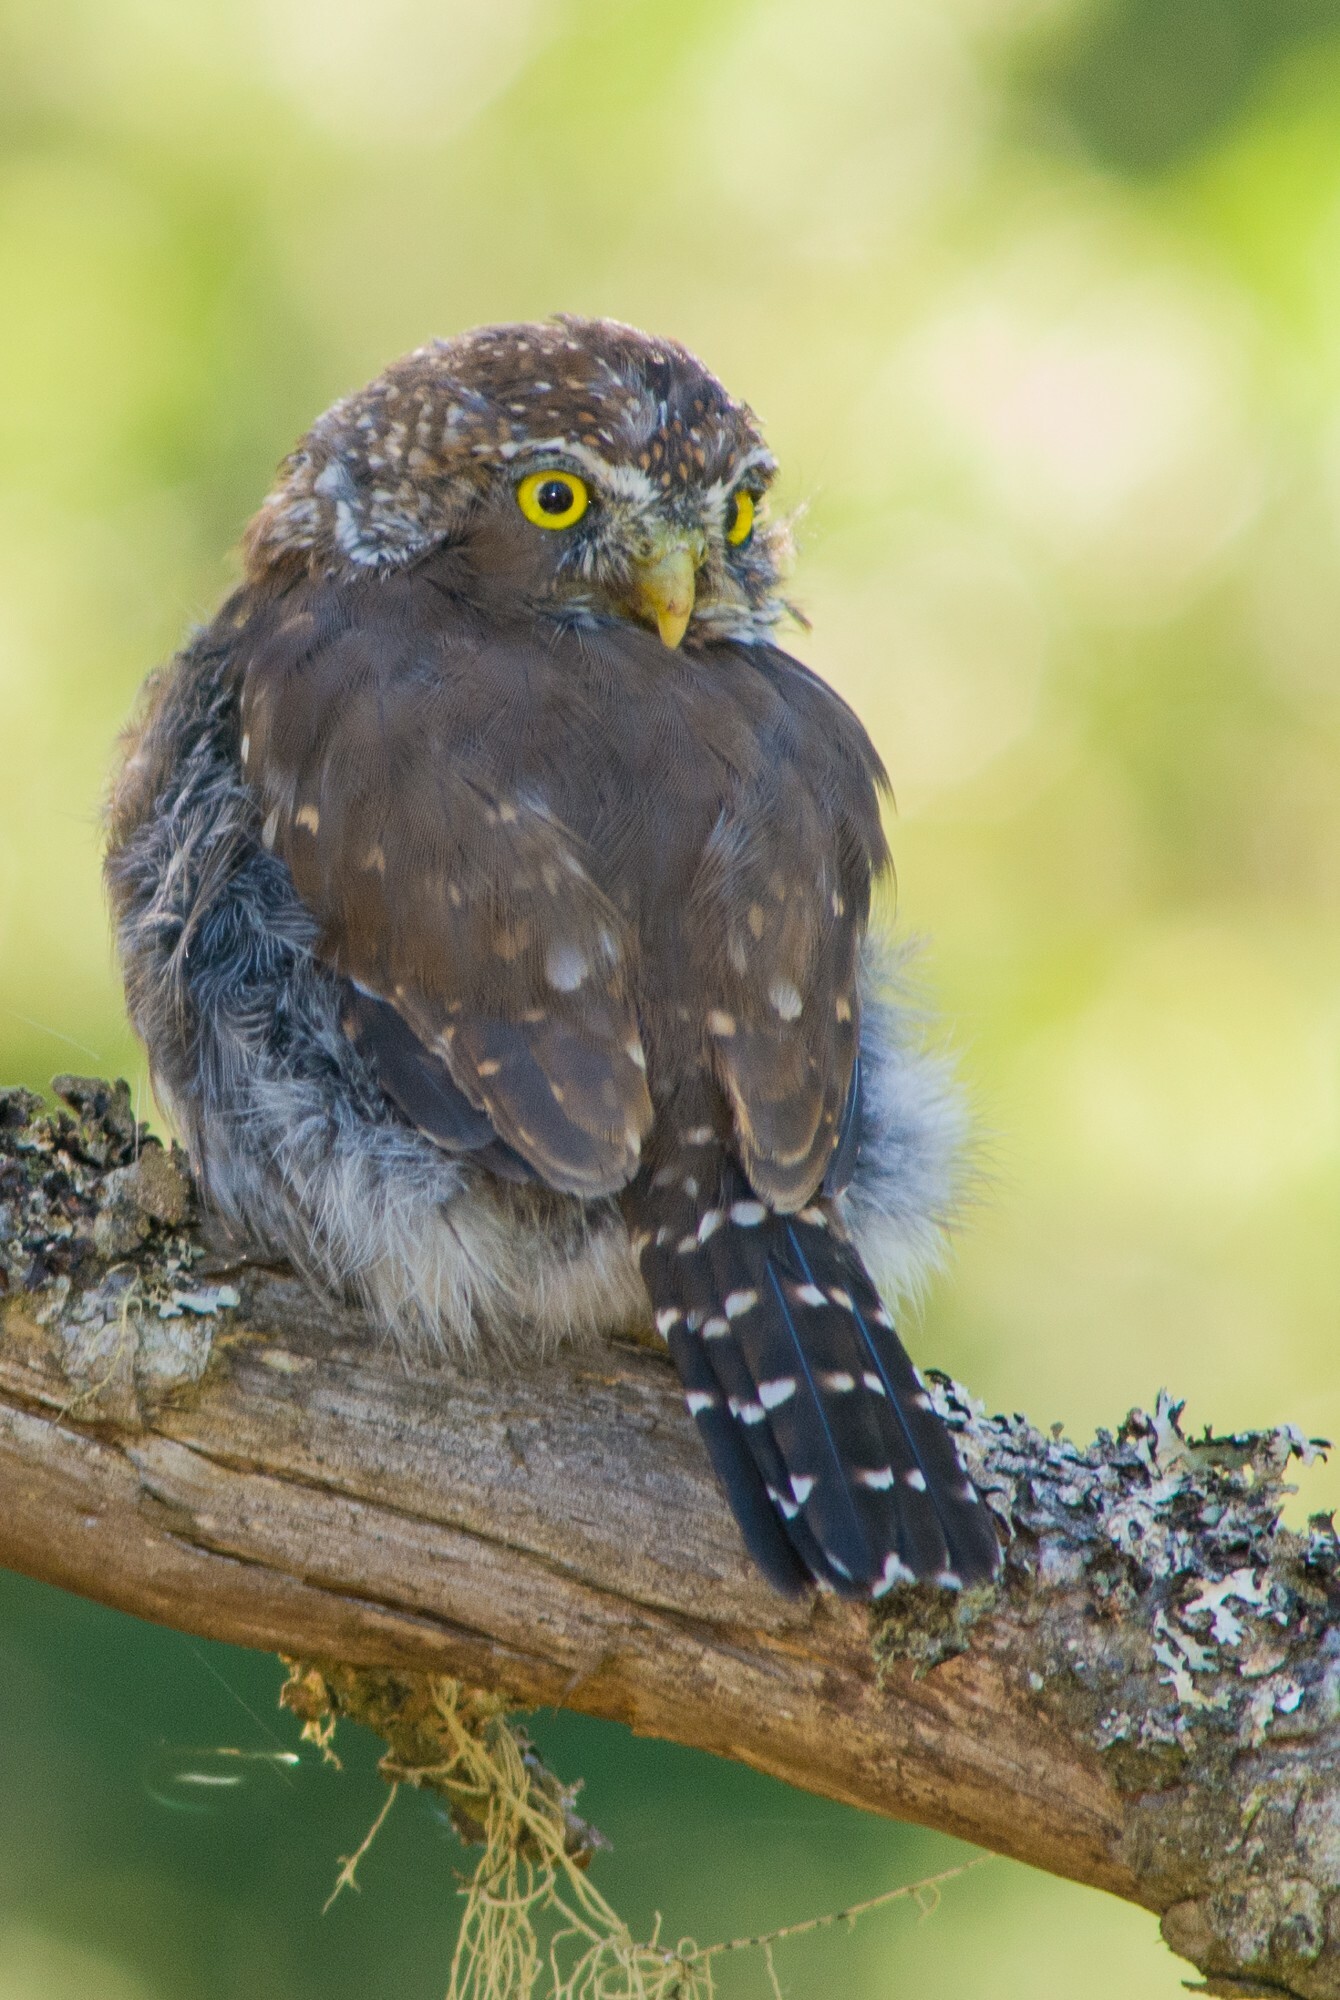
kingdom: Animalia
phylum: Chordata
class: Aves
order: Strigiformes
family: Strigidae
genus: Glaucidium
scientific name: Glaucidium gnoma
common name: Northern pygmy-owl
